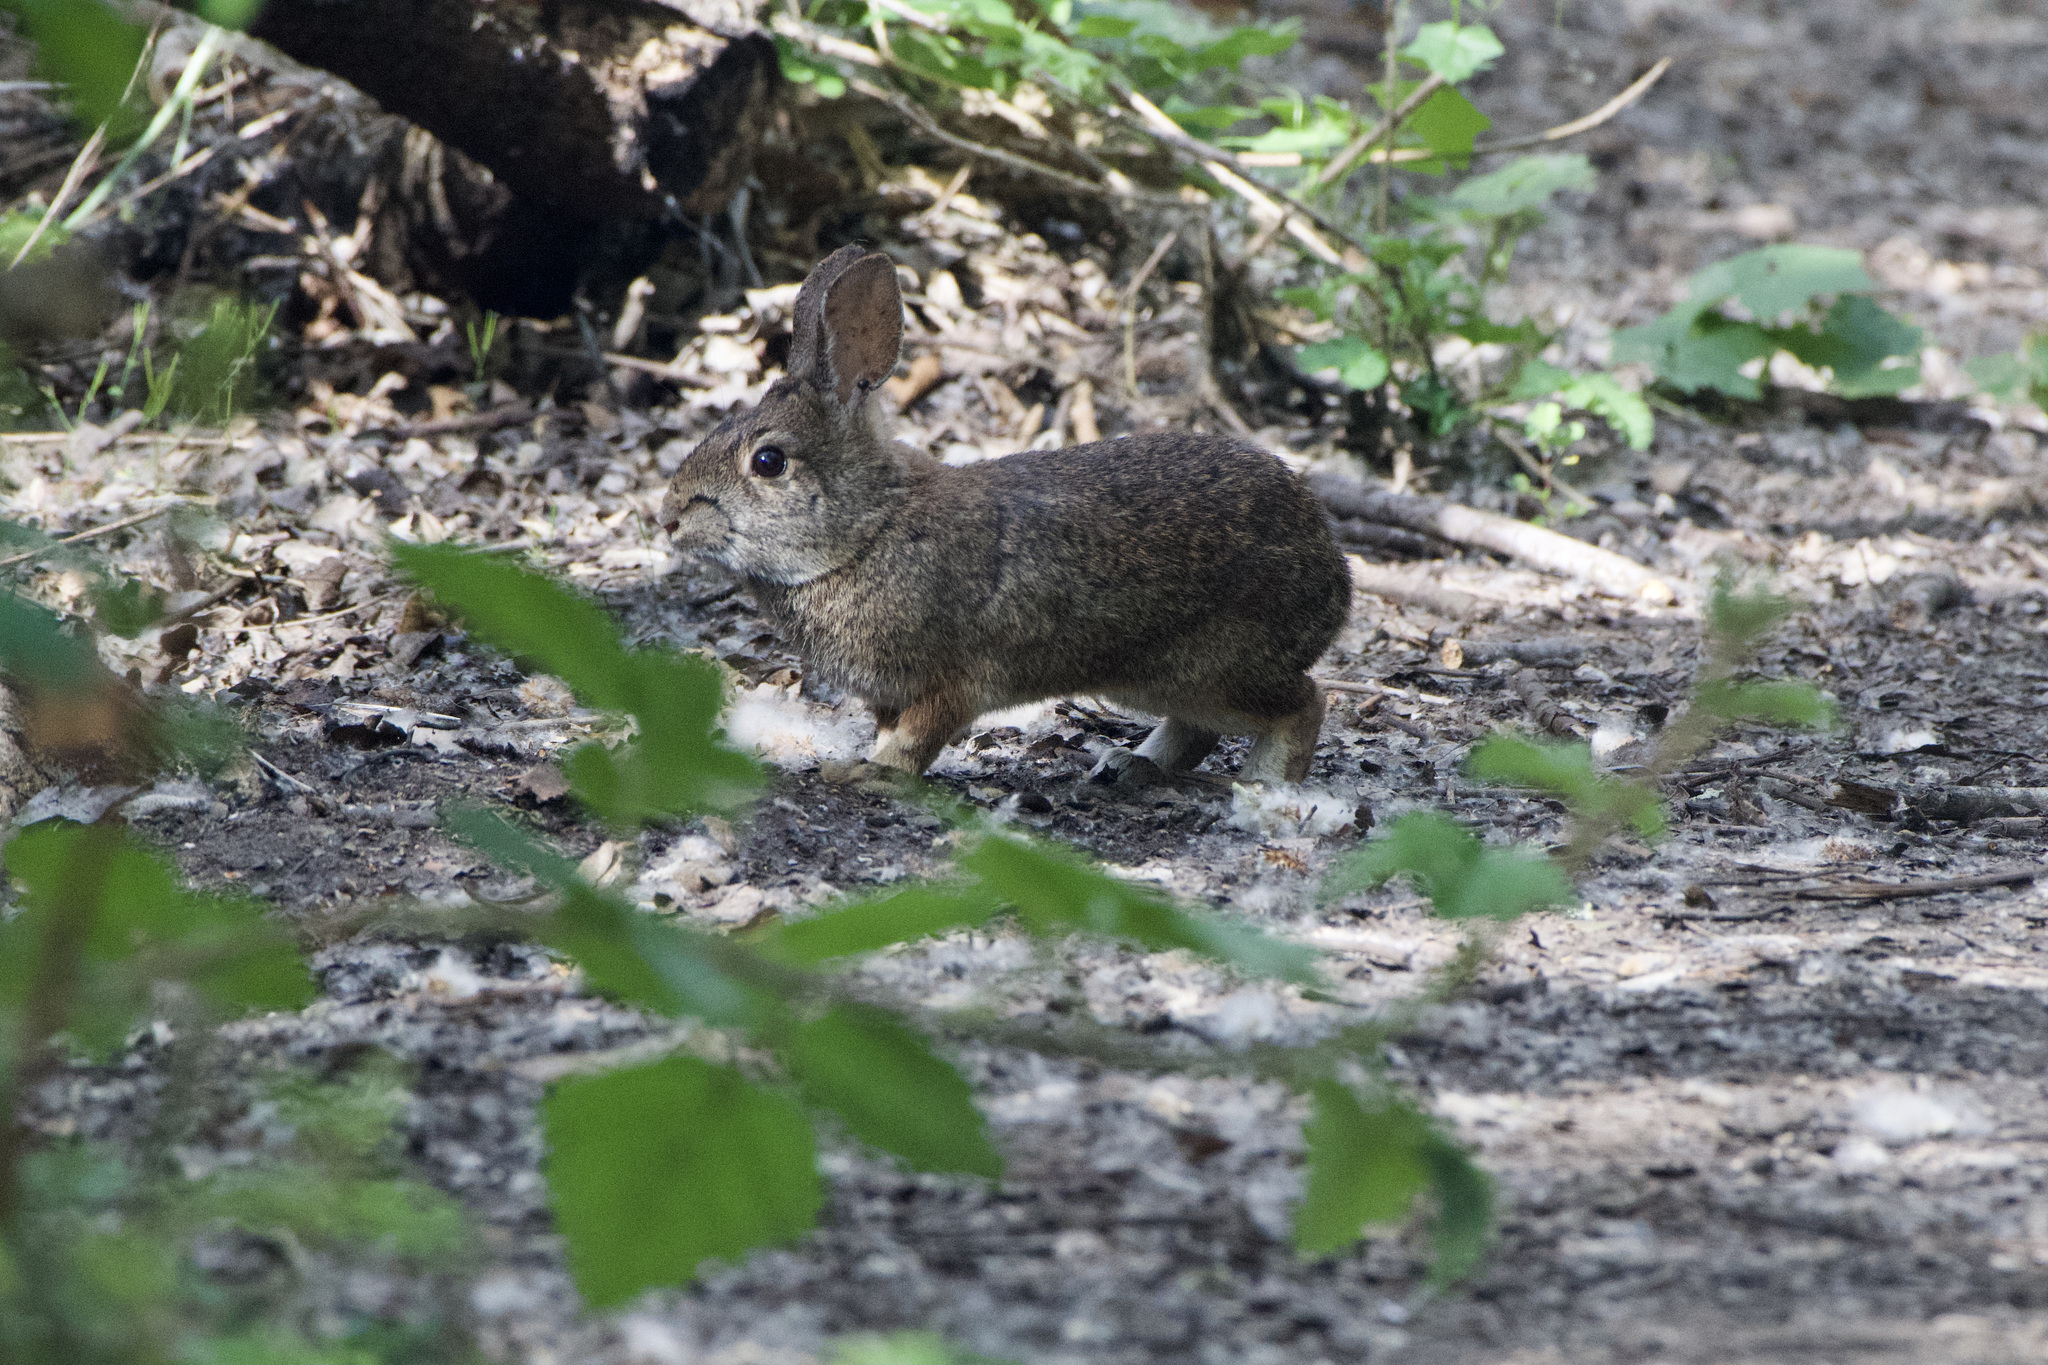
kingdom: Animalia
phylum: Chordata
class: Mammalia
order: Lagomorpha
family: Leporidae
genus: Sylvilagus
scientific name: Sylvilagus bachmani
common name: Brush rabbit
